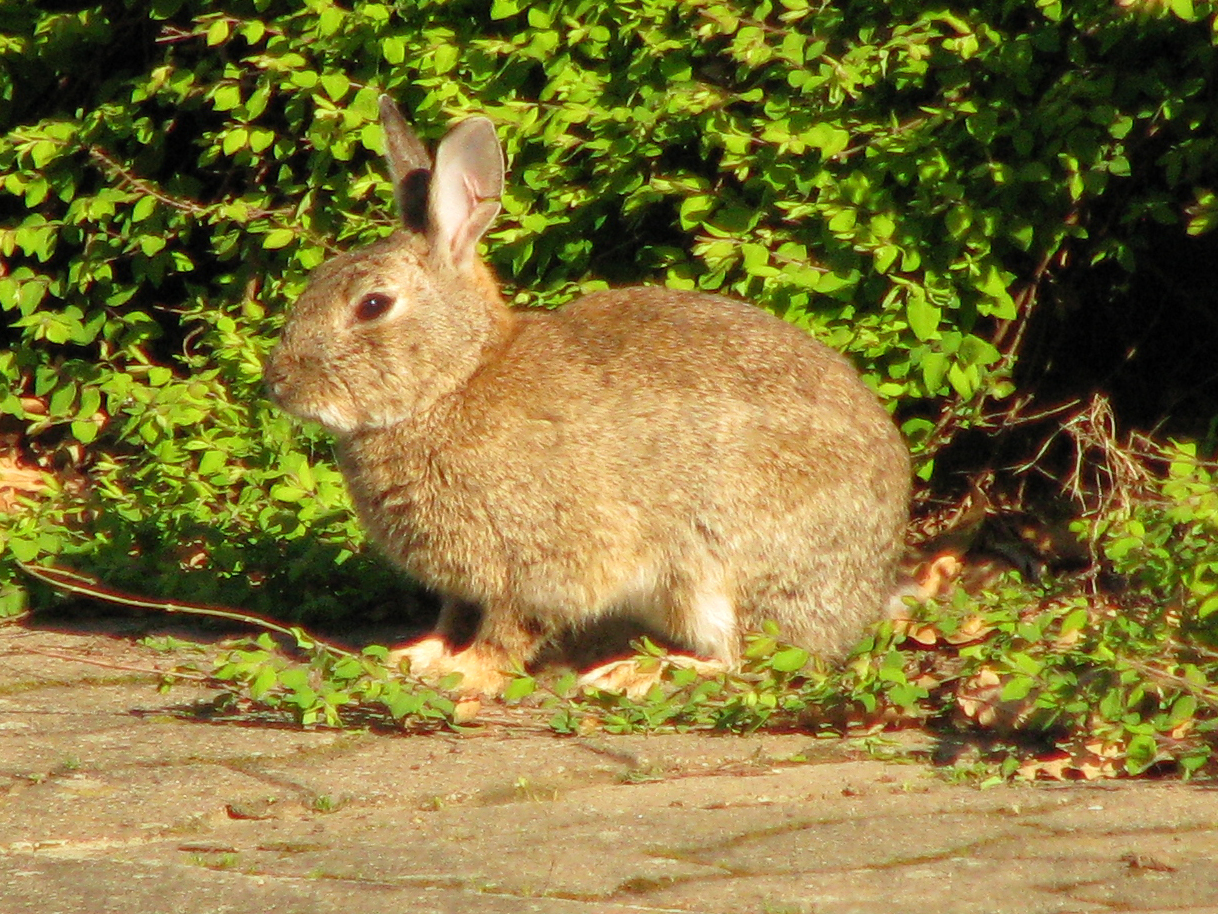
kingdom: Animalia
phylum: Chordata
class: Mammalia
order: Lagomorpha
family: Leporidae
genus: Oryctolagus
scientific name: Oryctolagus cuniculus
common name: European rabbit
